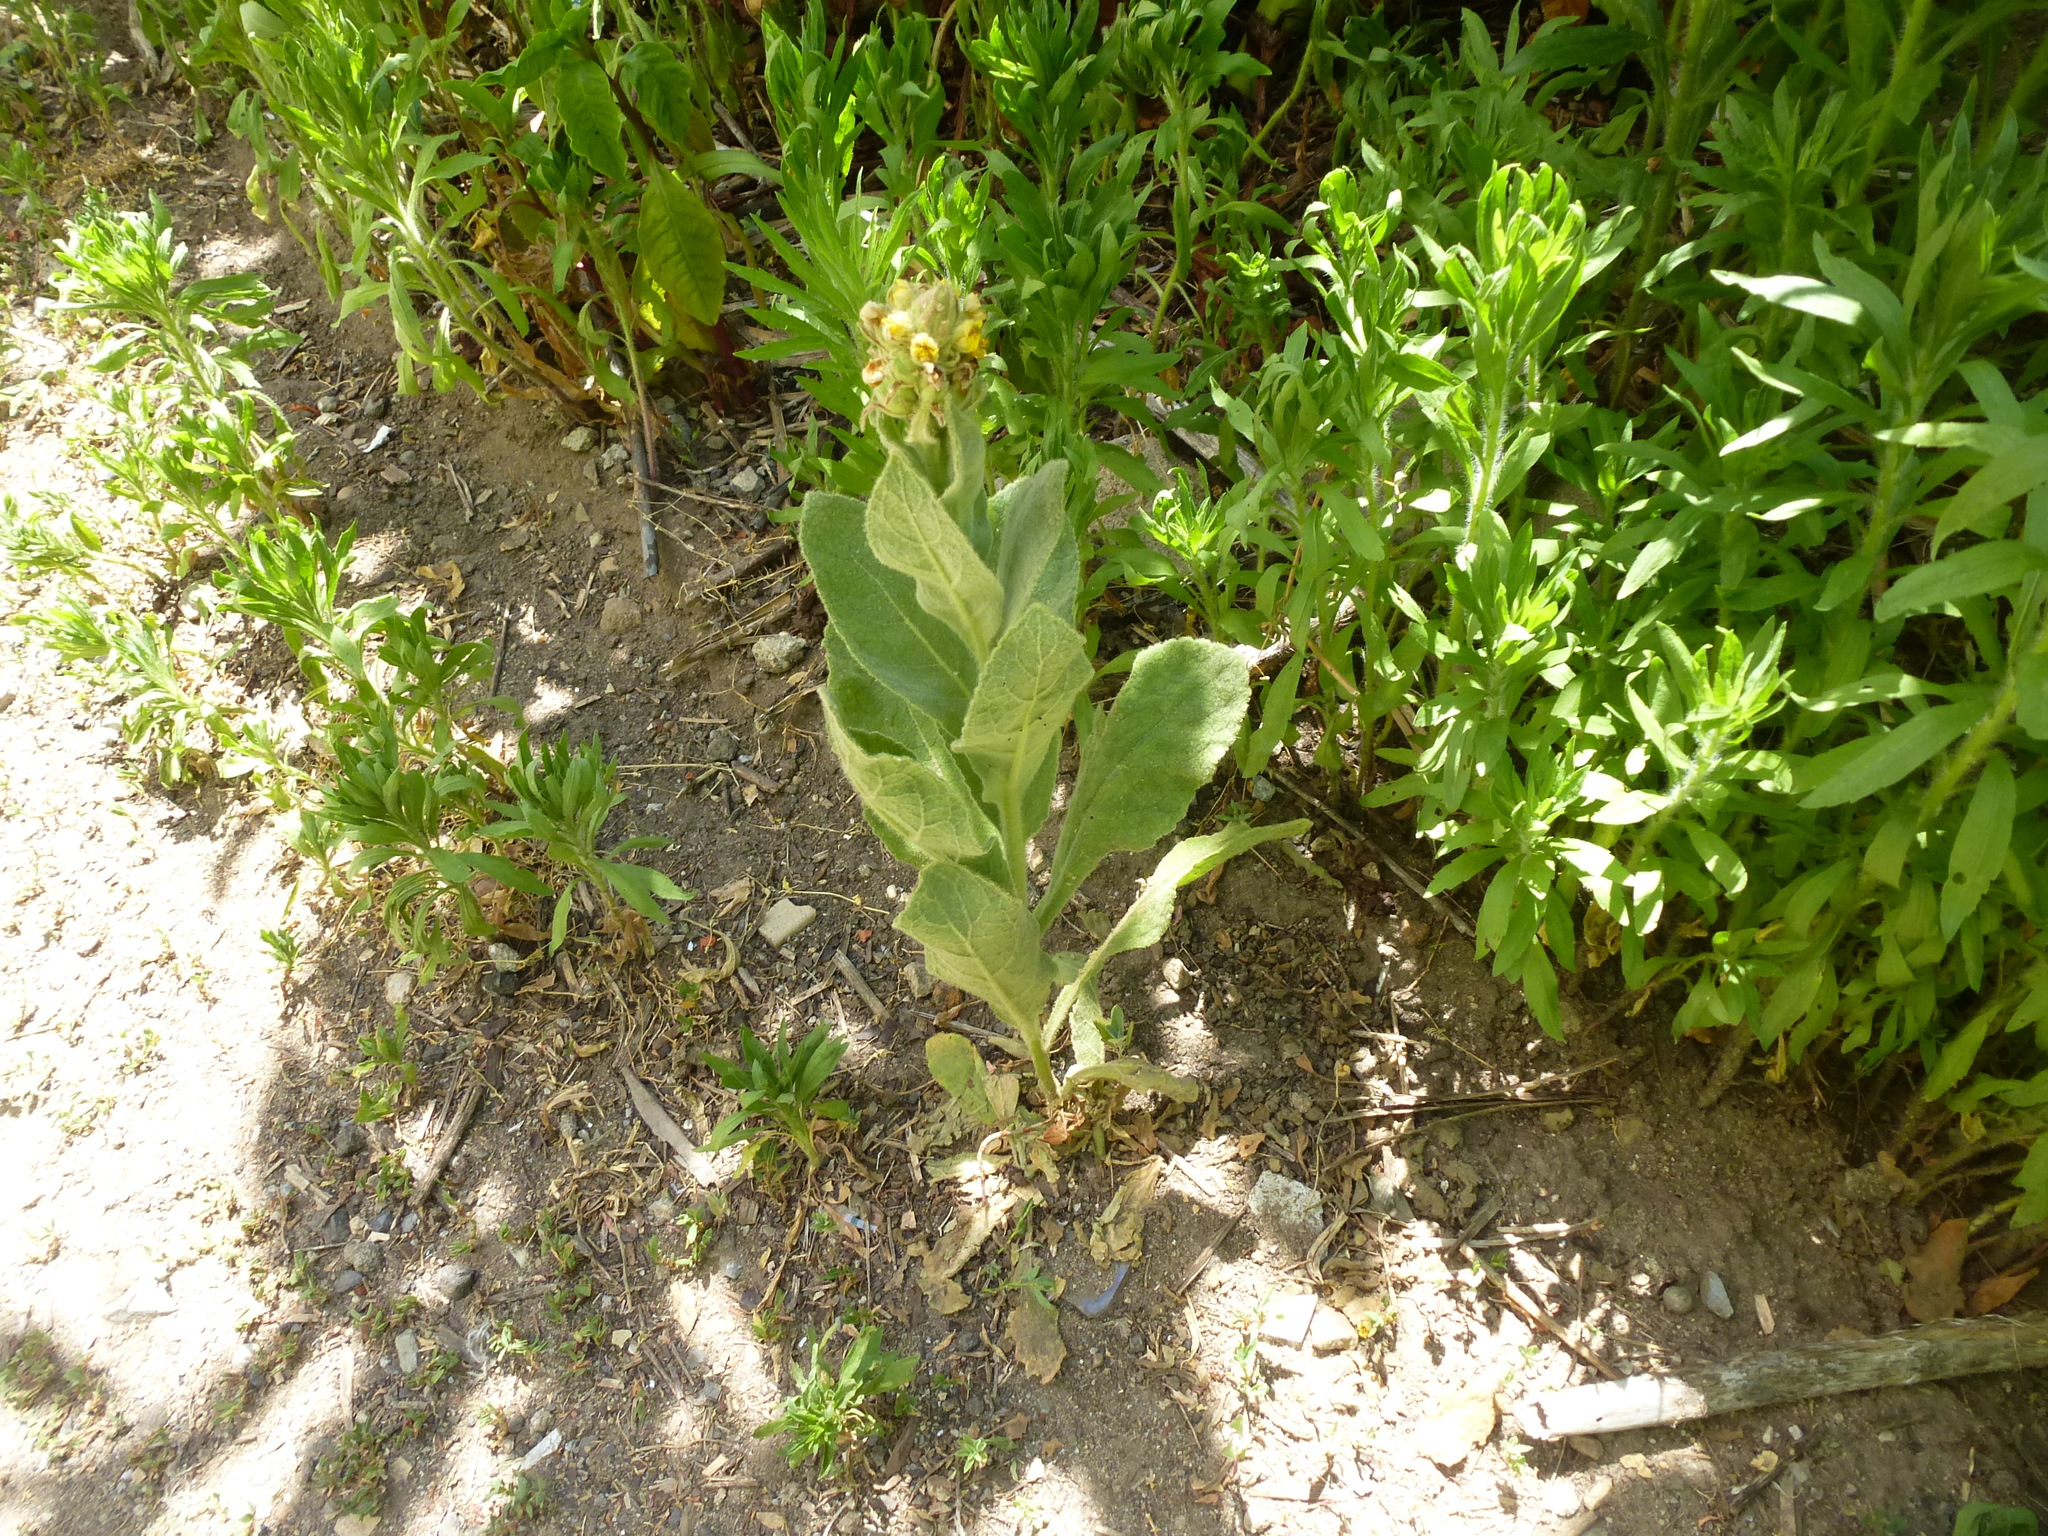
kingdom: Plantae
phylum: Tracheophyta
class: Magnoliopsida
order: Lamiales
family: Scrophulariaceae
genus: Verbascum
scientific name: Verbascum thapsus
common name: Common mullein
